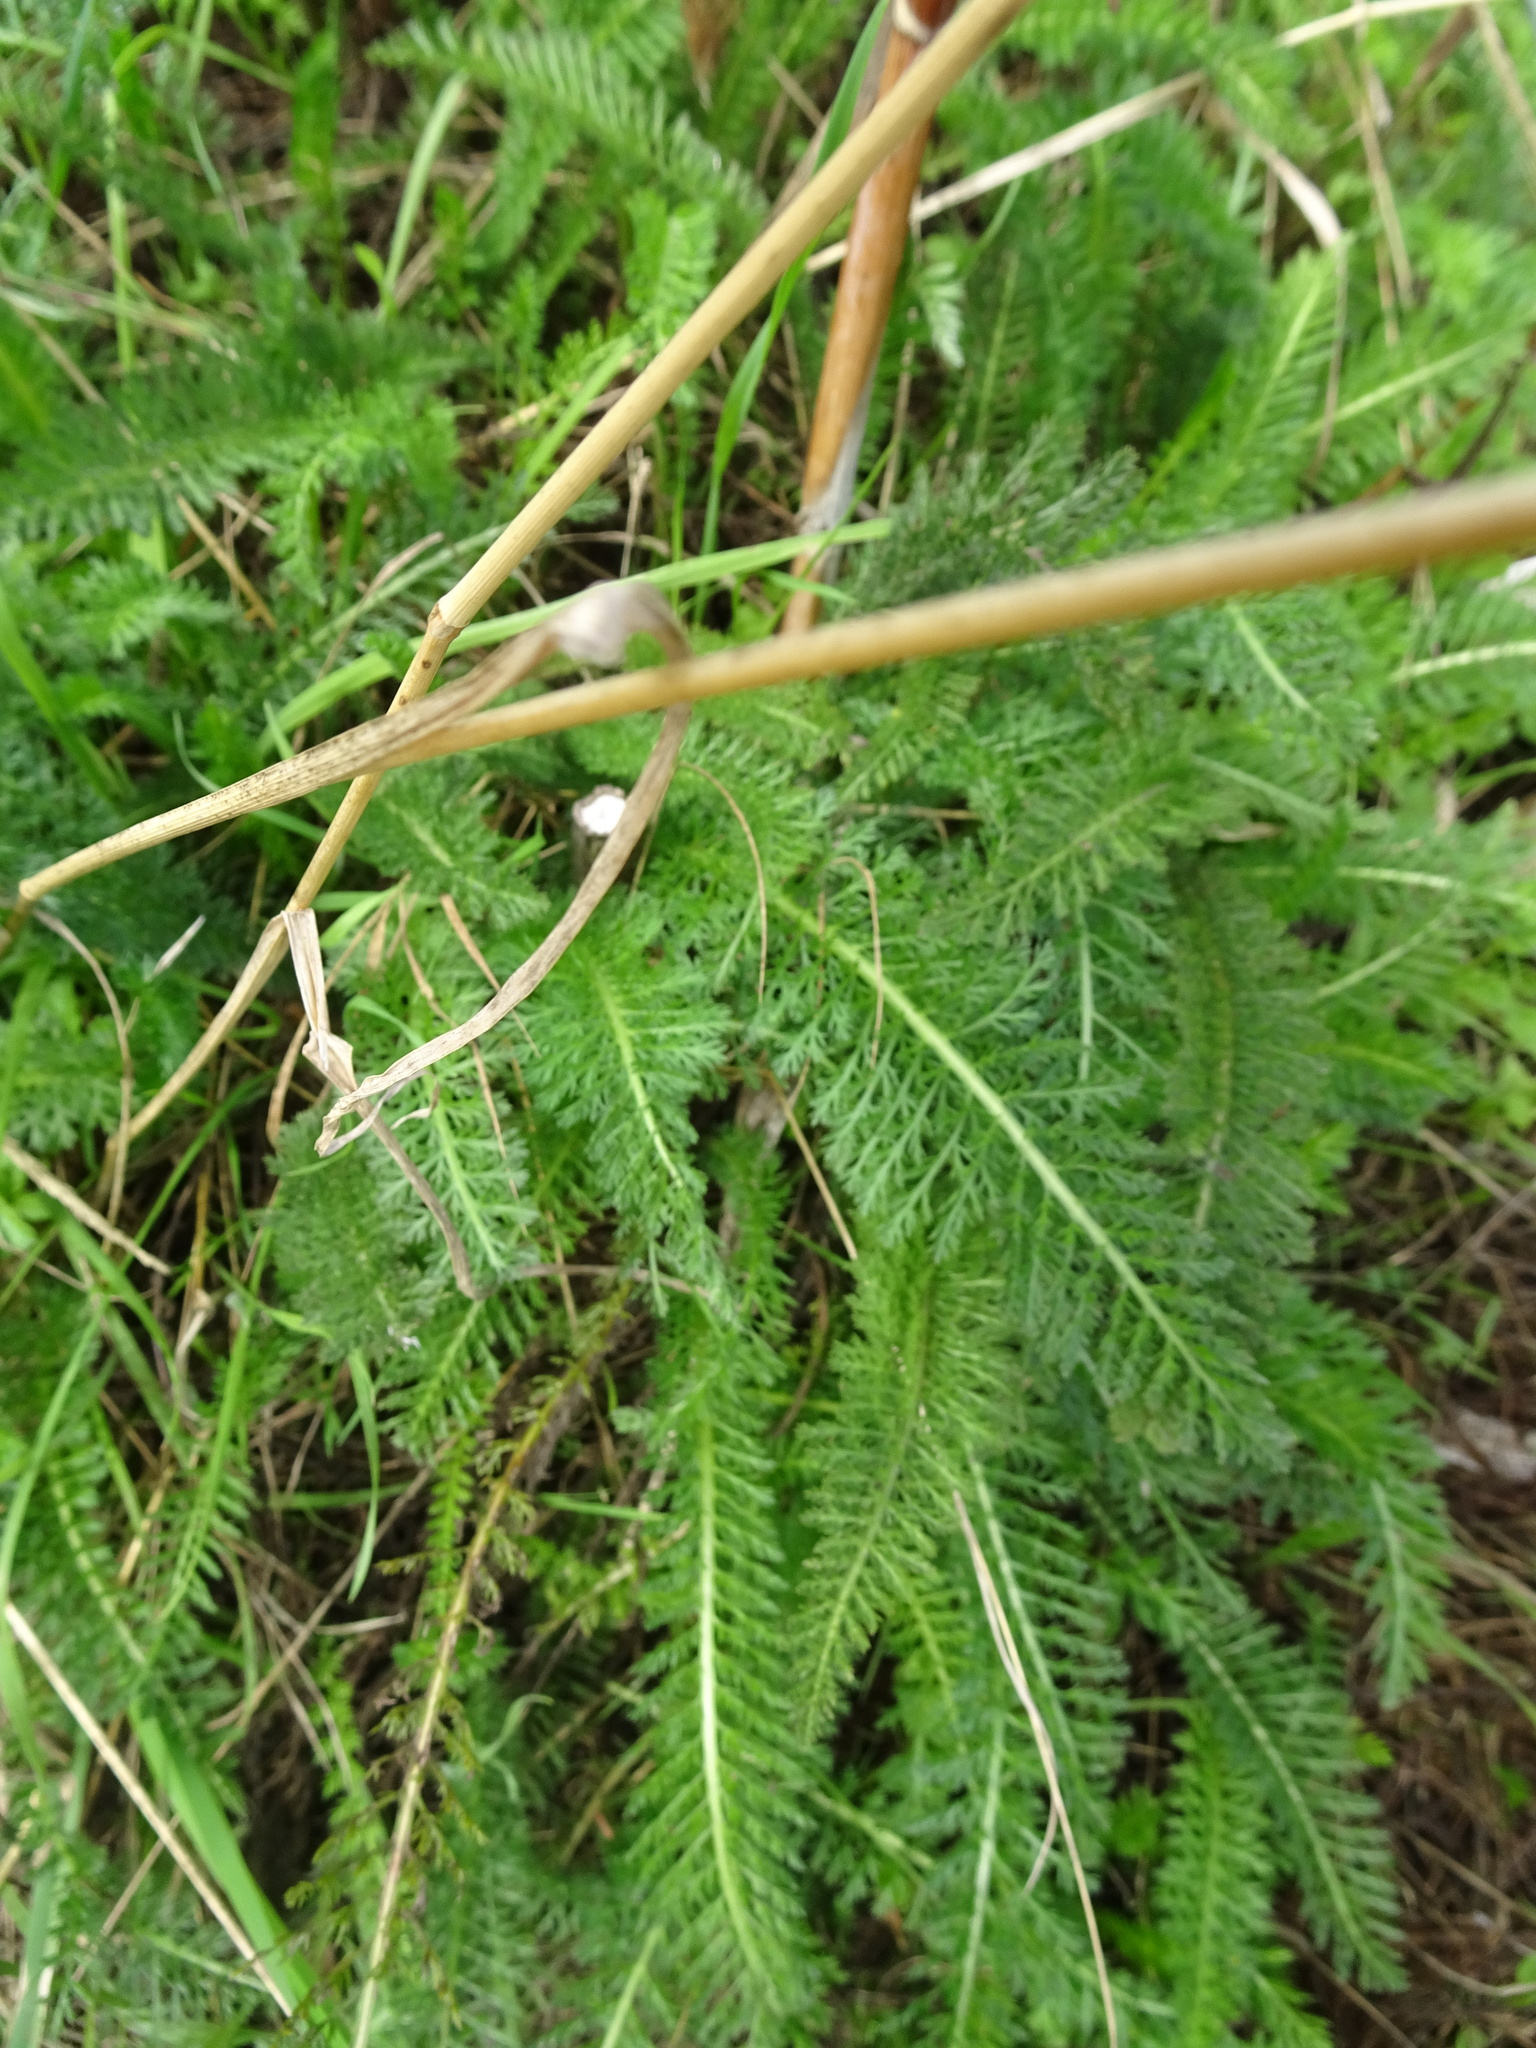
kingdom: Plantae
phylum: Tracheophyta
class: Magnoliopsida
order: Asterales
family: Asteraceae
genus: Achillea
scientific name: Achillea millefolium
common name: Yarrow
